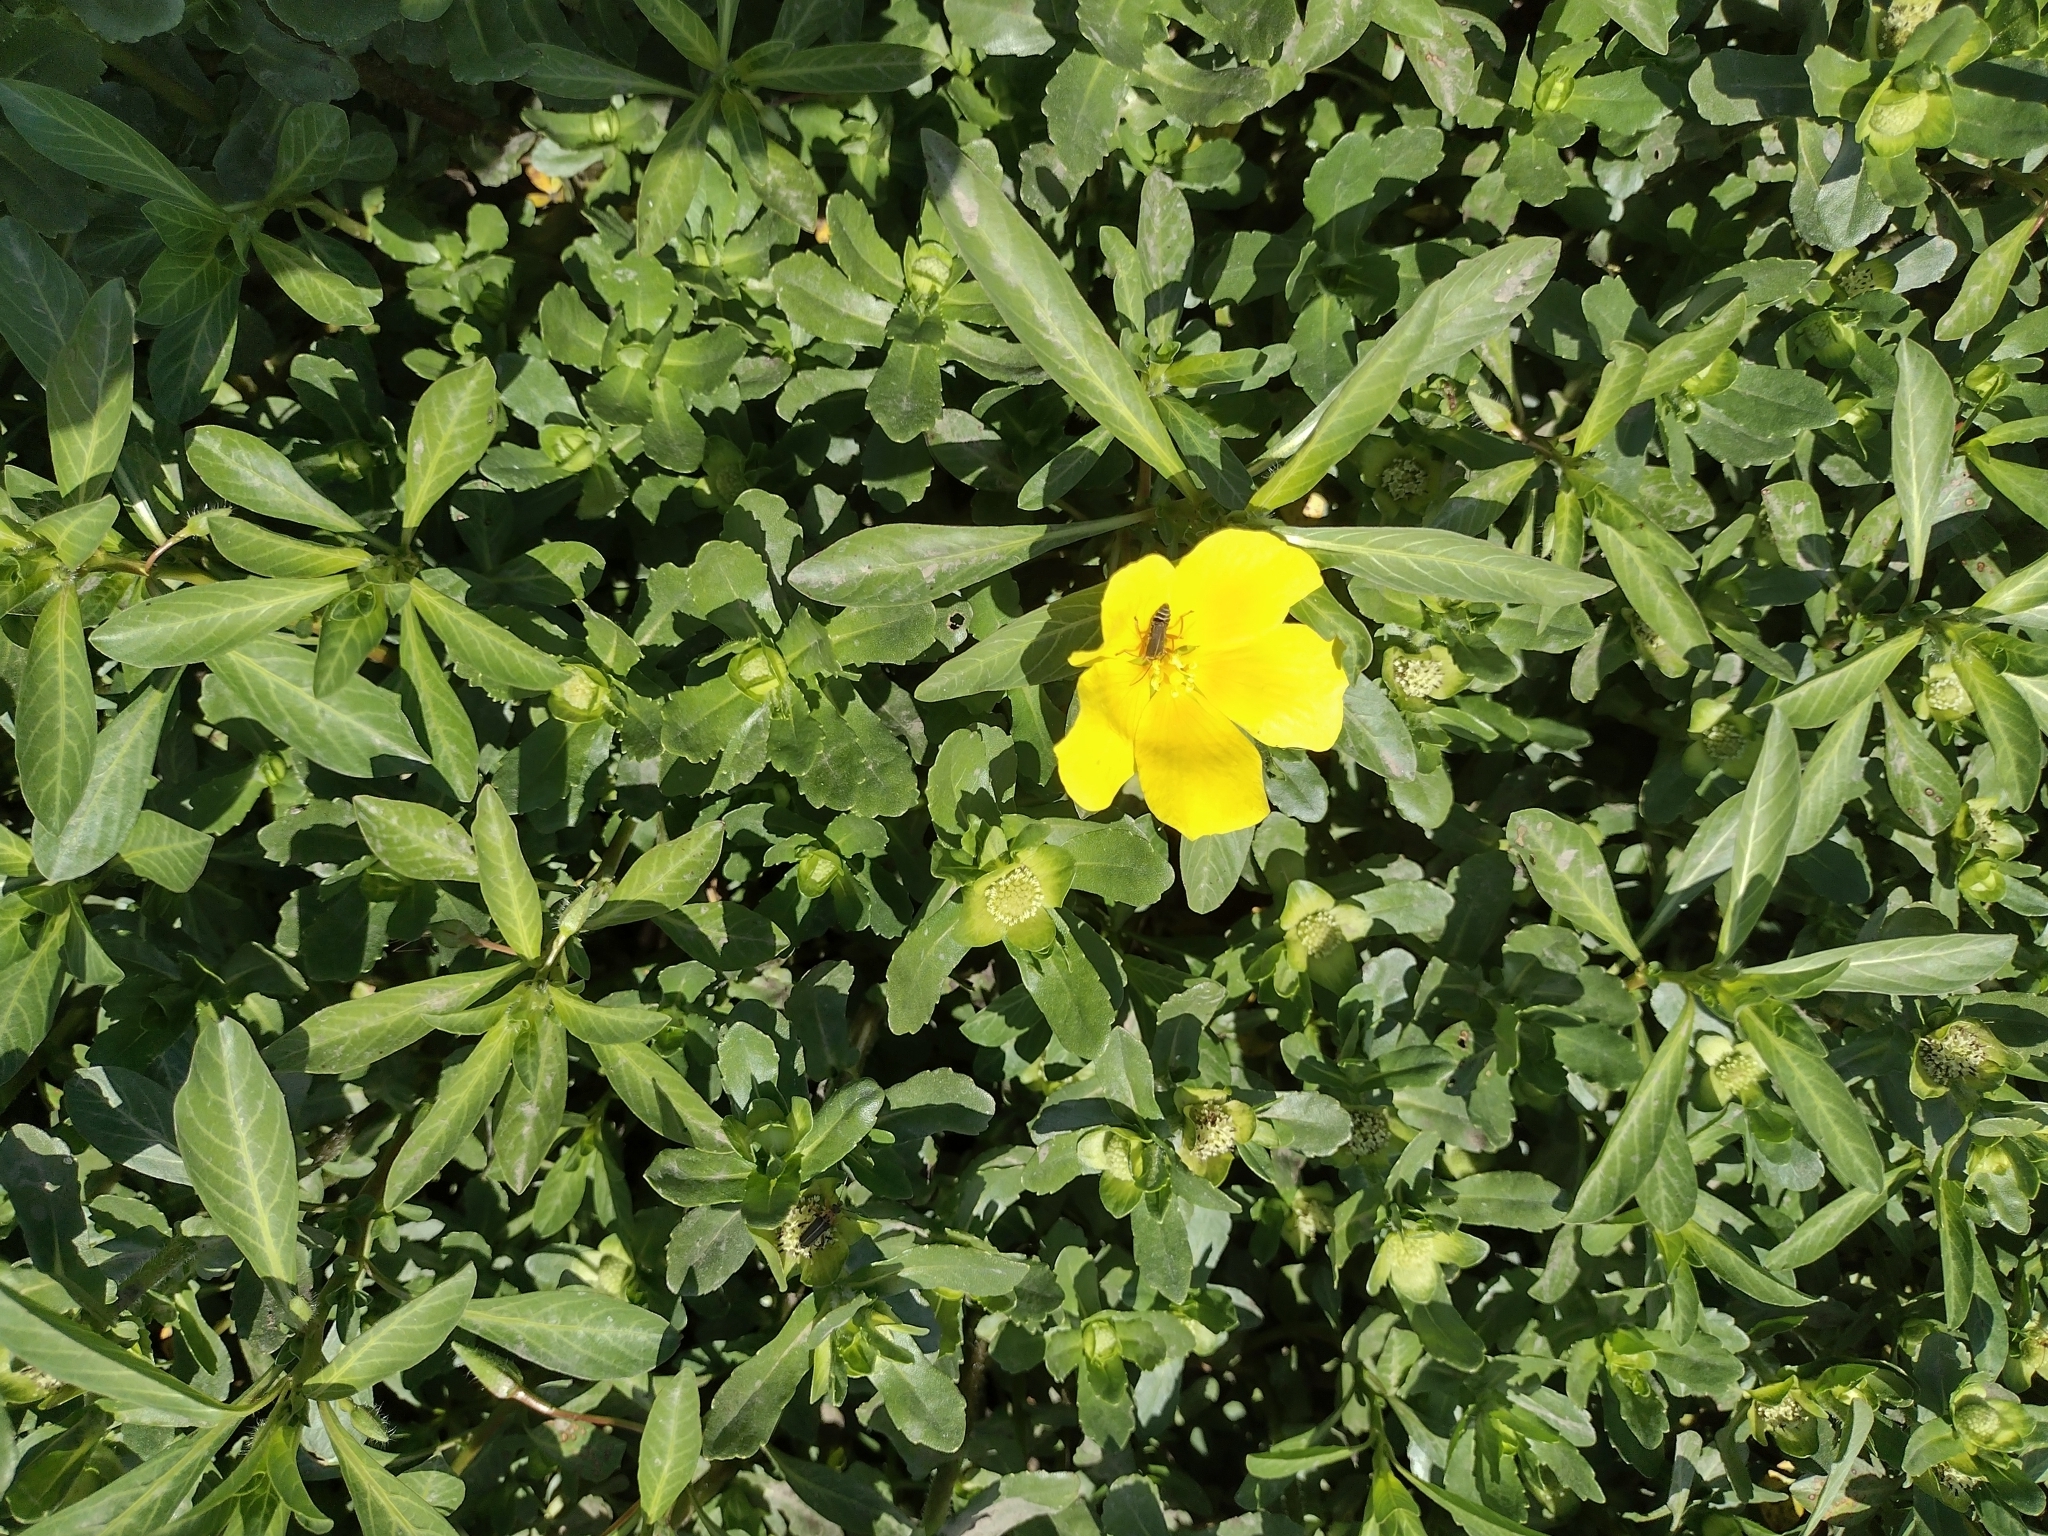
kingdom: Plantae
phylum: Tracheophyta
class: Magnoliopsida
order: Myrtales
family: Onagraceae
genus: Ludwigia
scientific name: Ludwigia grandiflora
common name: Water primrose
